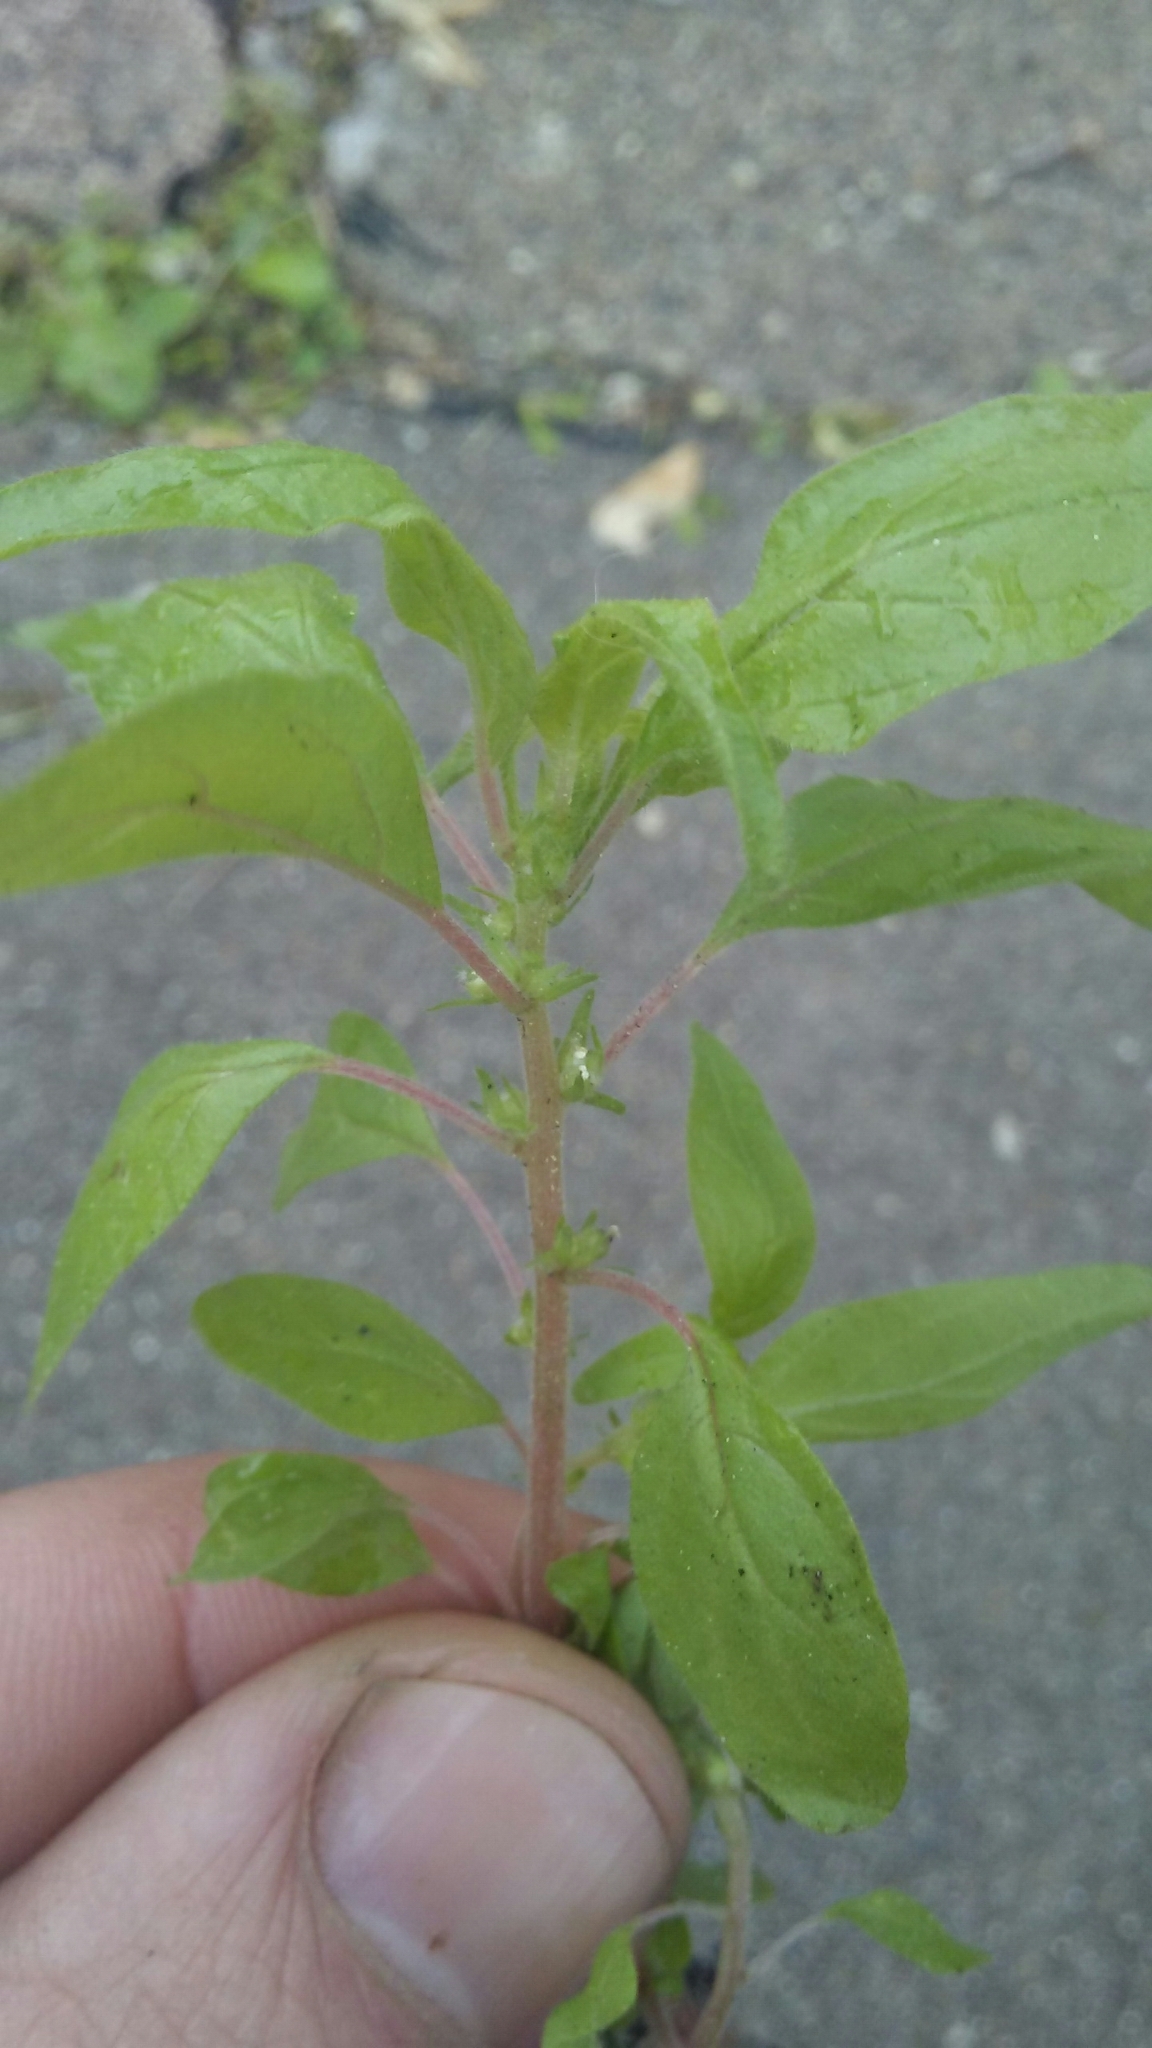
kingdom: Plantae
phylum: Tracheophyta
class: Magnoliopsida
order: Rosales
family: Urticaceae
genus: Parietaria
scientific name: Parietaria pensylvanica
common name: Pennsylvania pellitory
